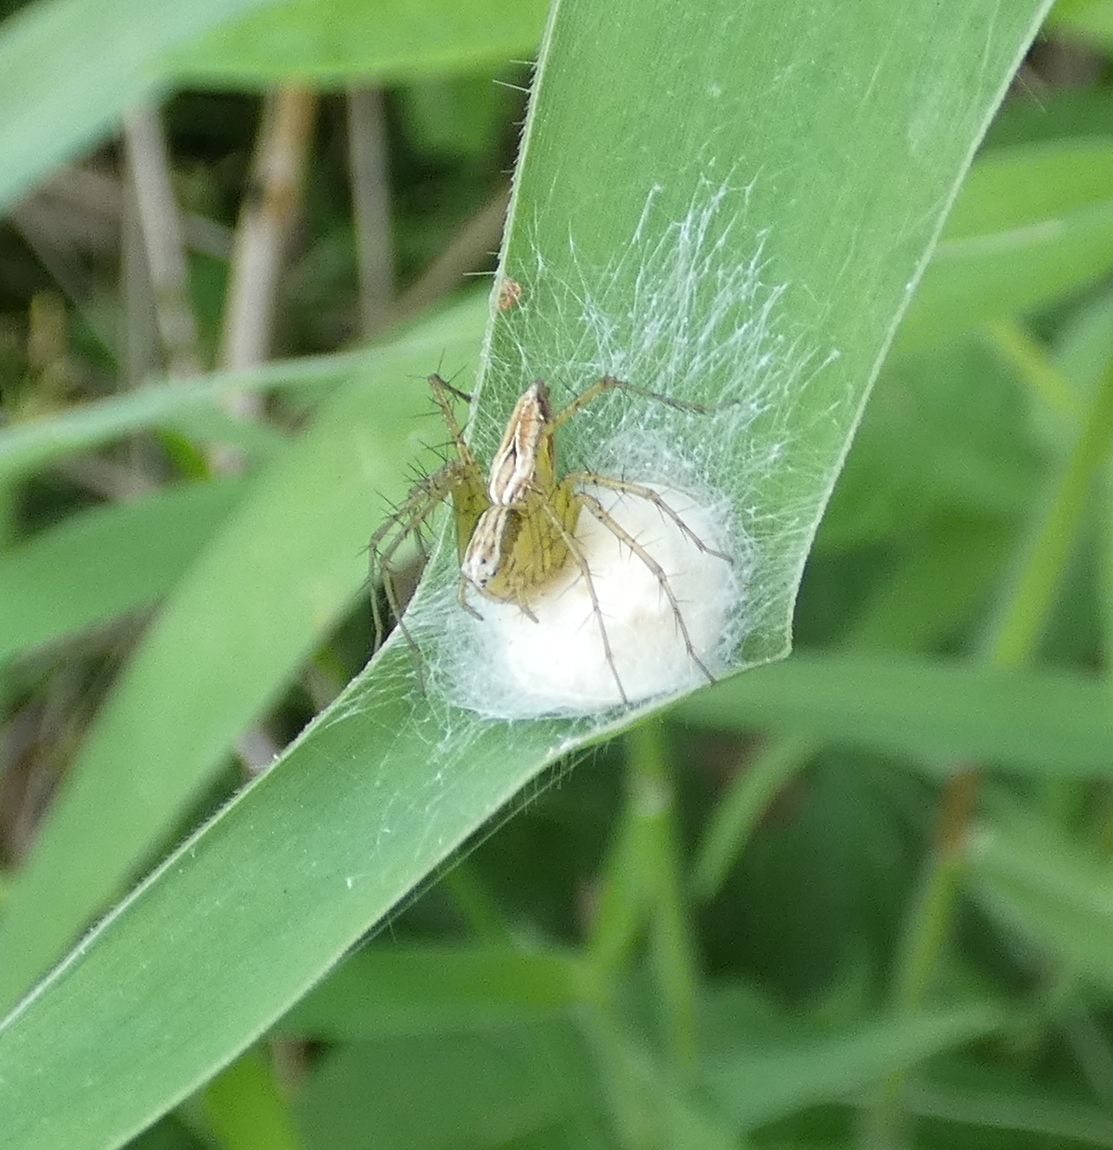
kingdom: Animalia
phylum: Arthropoda
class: Arachnida
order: Araneae
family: Oxyopidae
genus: Oxyopes
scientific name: Oxyopes salticus
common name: Lynx spiders
